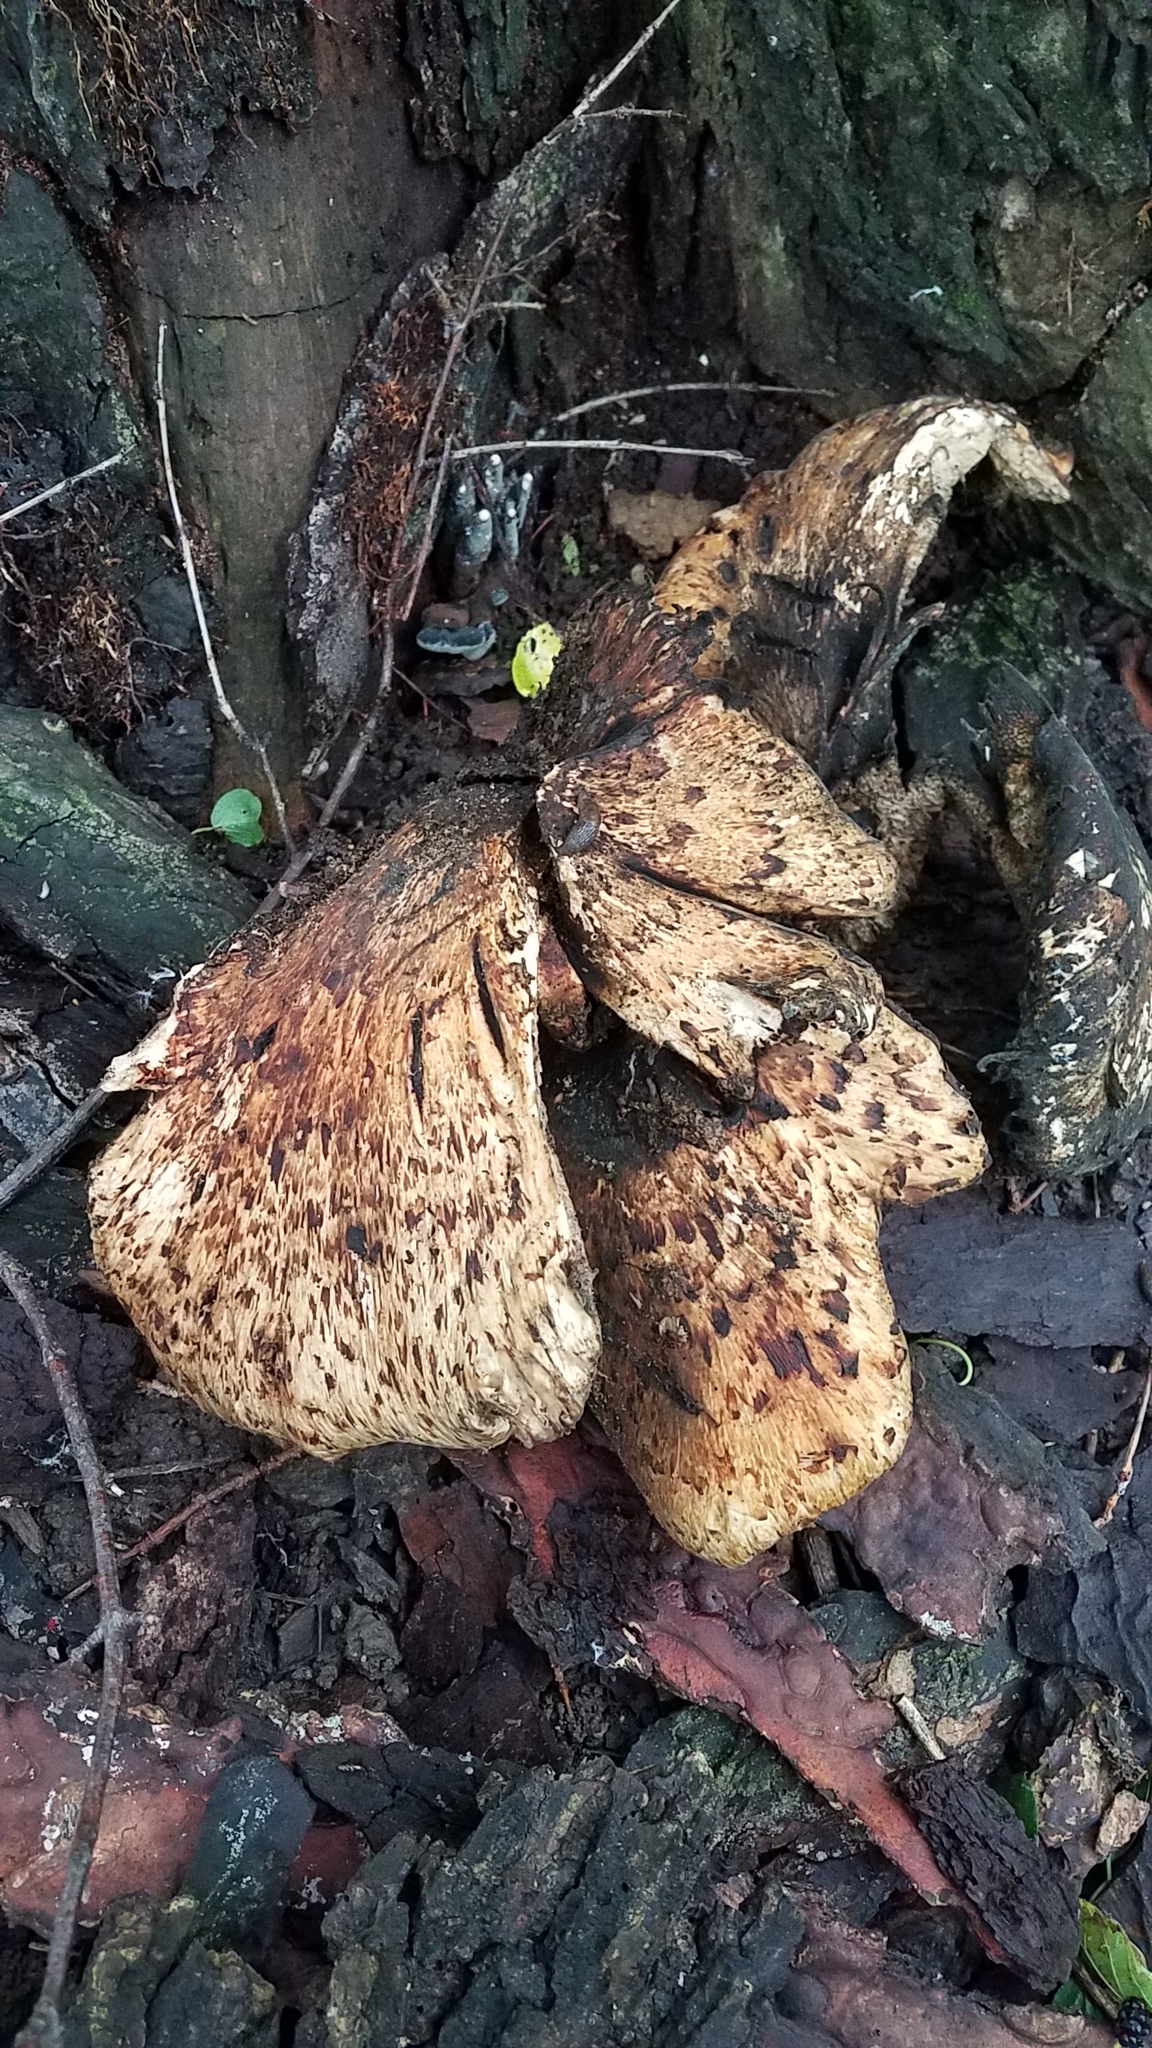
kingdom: Fungi
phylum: Basidiomycota
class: Agaricomycetes
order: Polyporales
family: Polyporaceae
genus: Cerioporus
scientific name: Cerioporus squamosus
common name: Dryad's saddle
